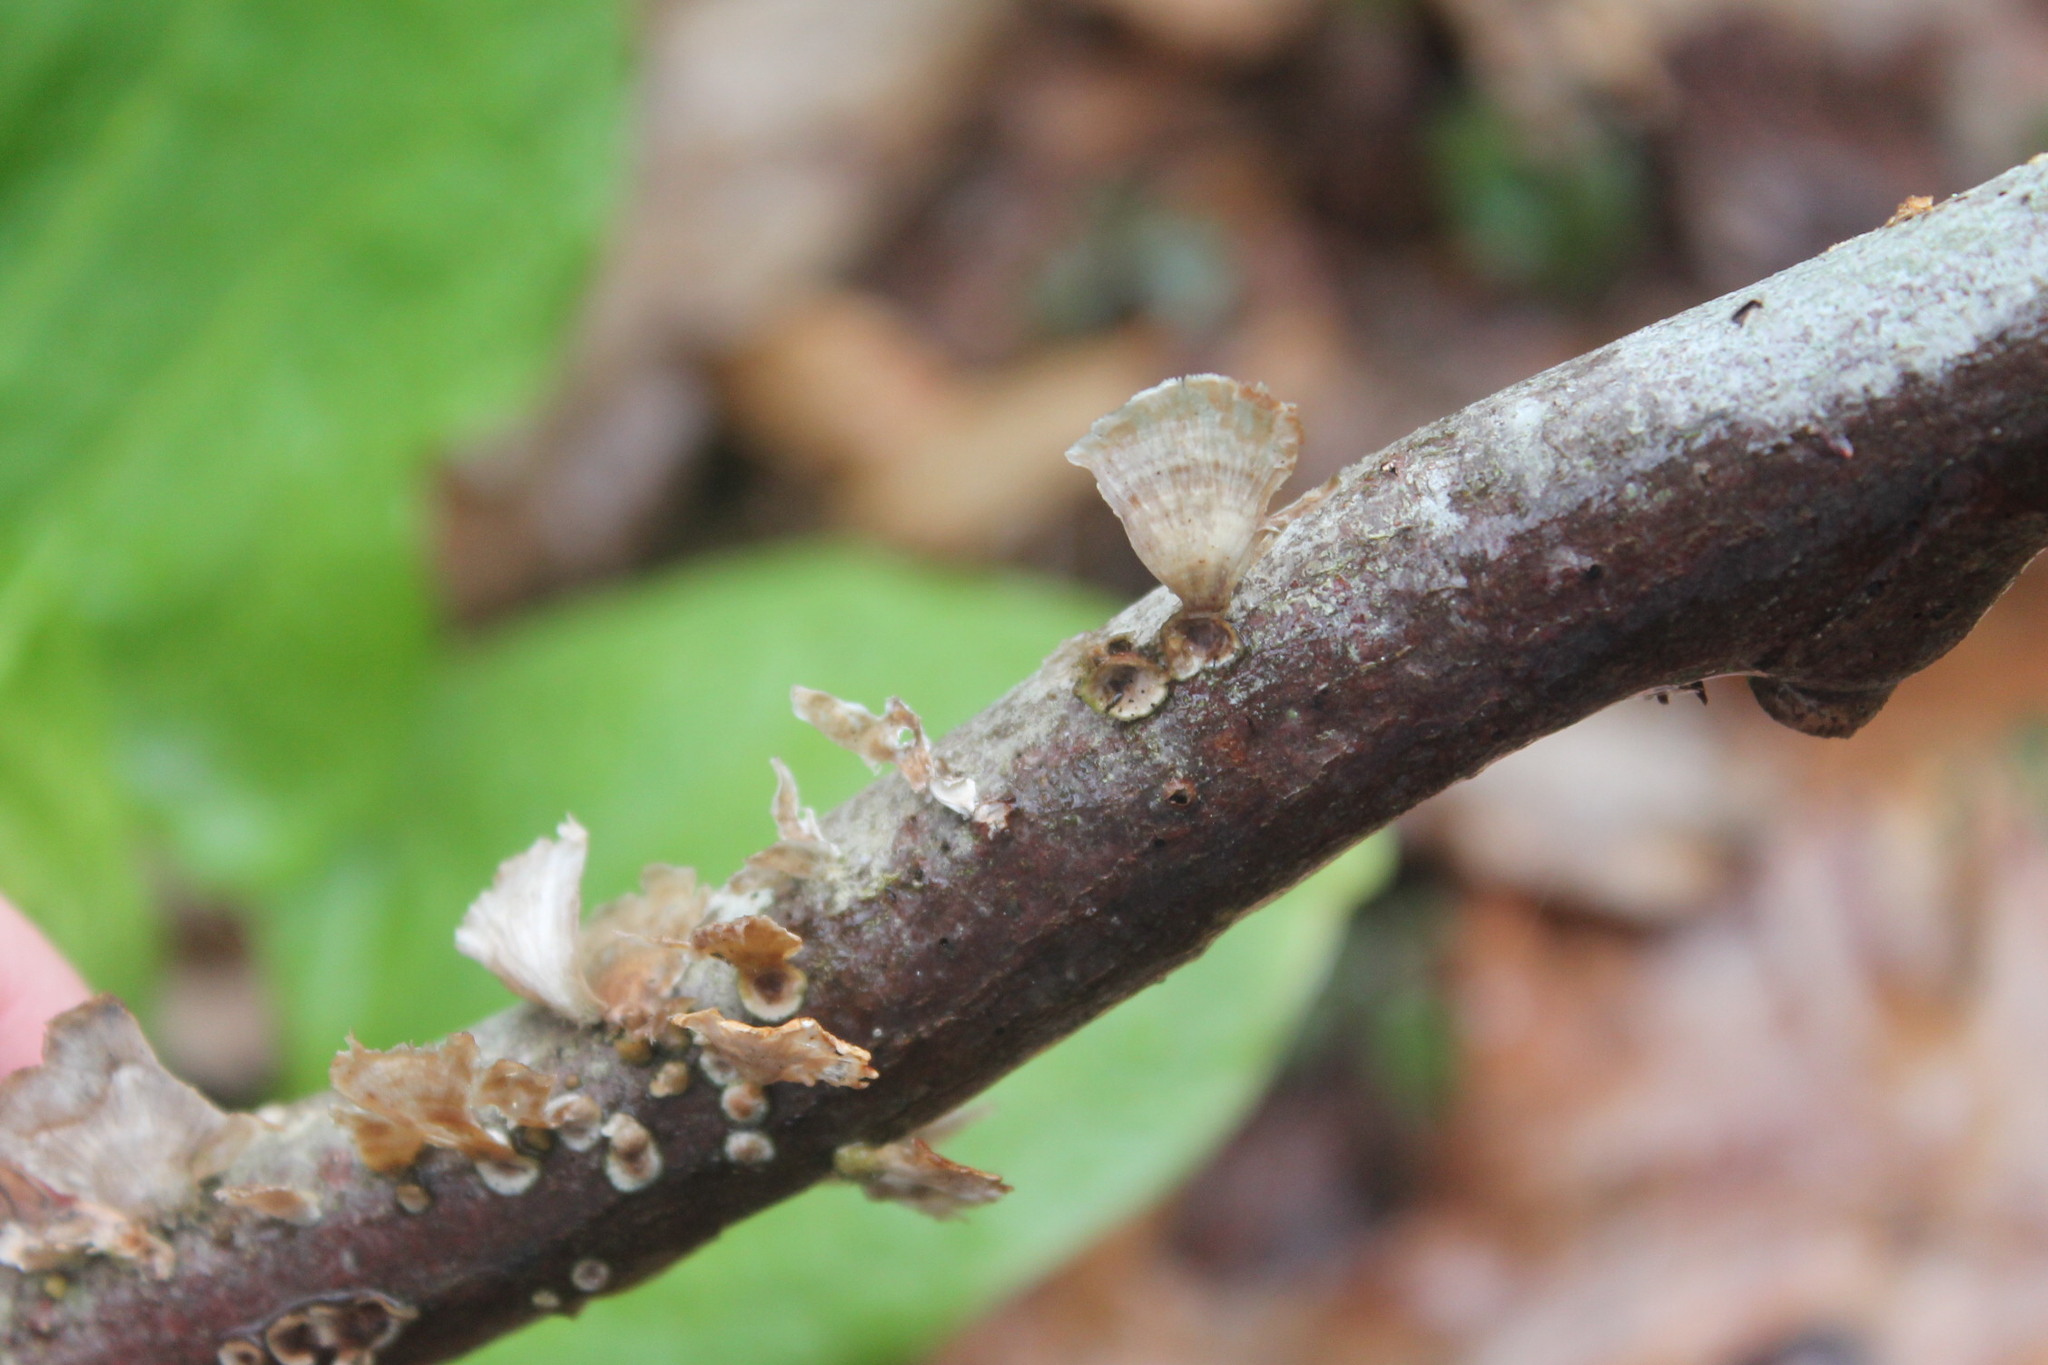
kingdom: Fungi
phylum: Basidiomycota
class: Agaricomycetes
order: Russulales
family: Stereaceae
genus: Stereum
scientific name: Stereum striatum
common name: Silky parchment
